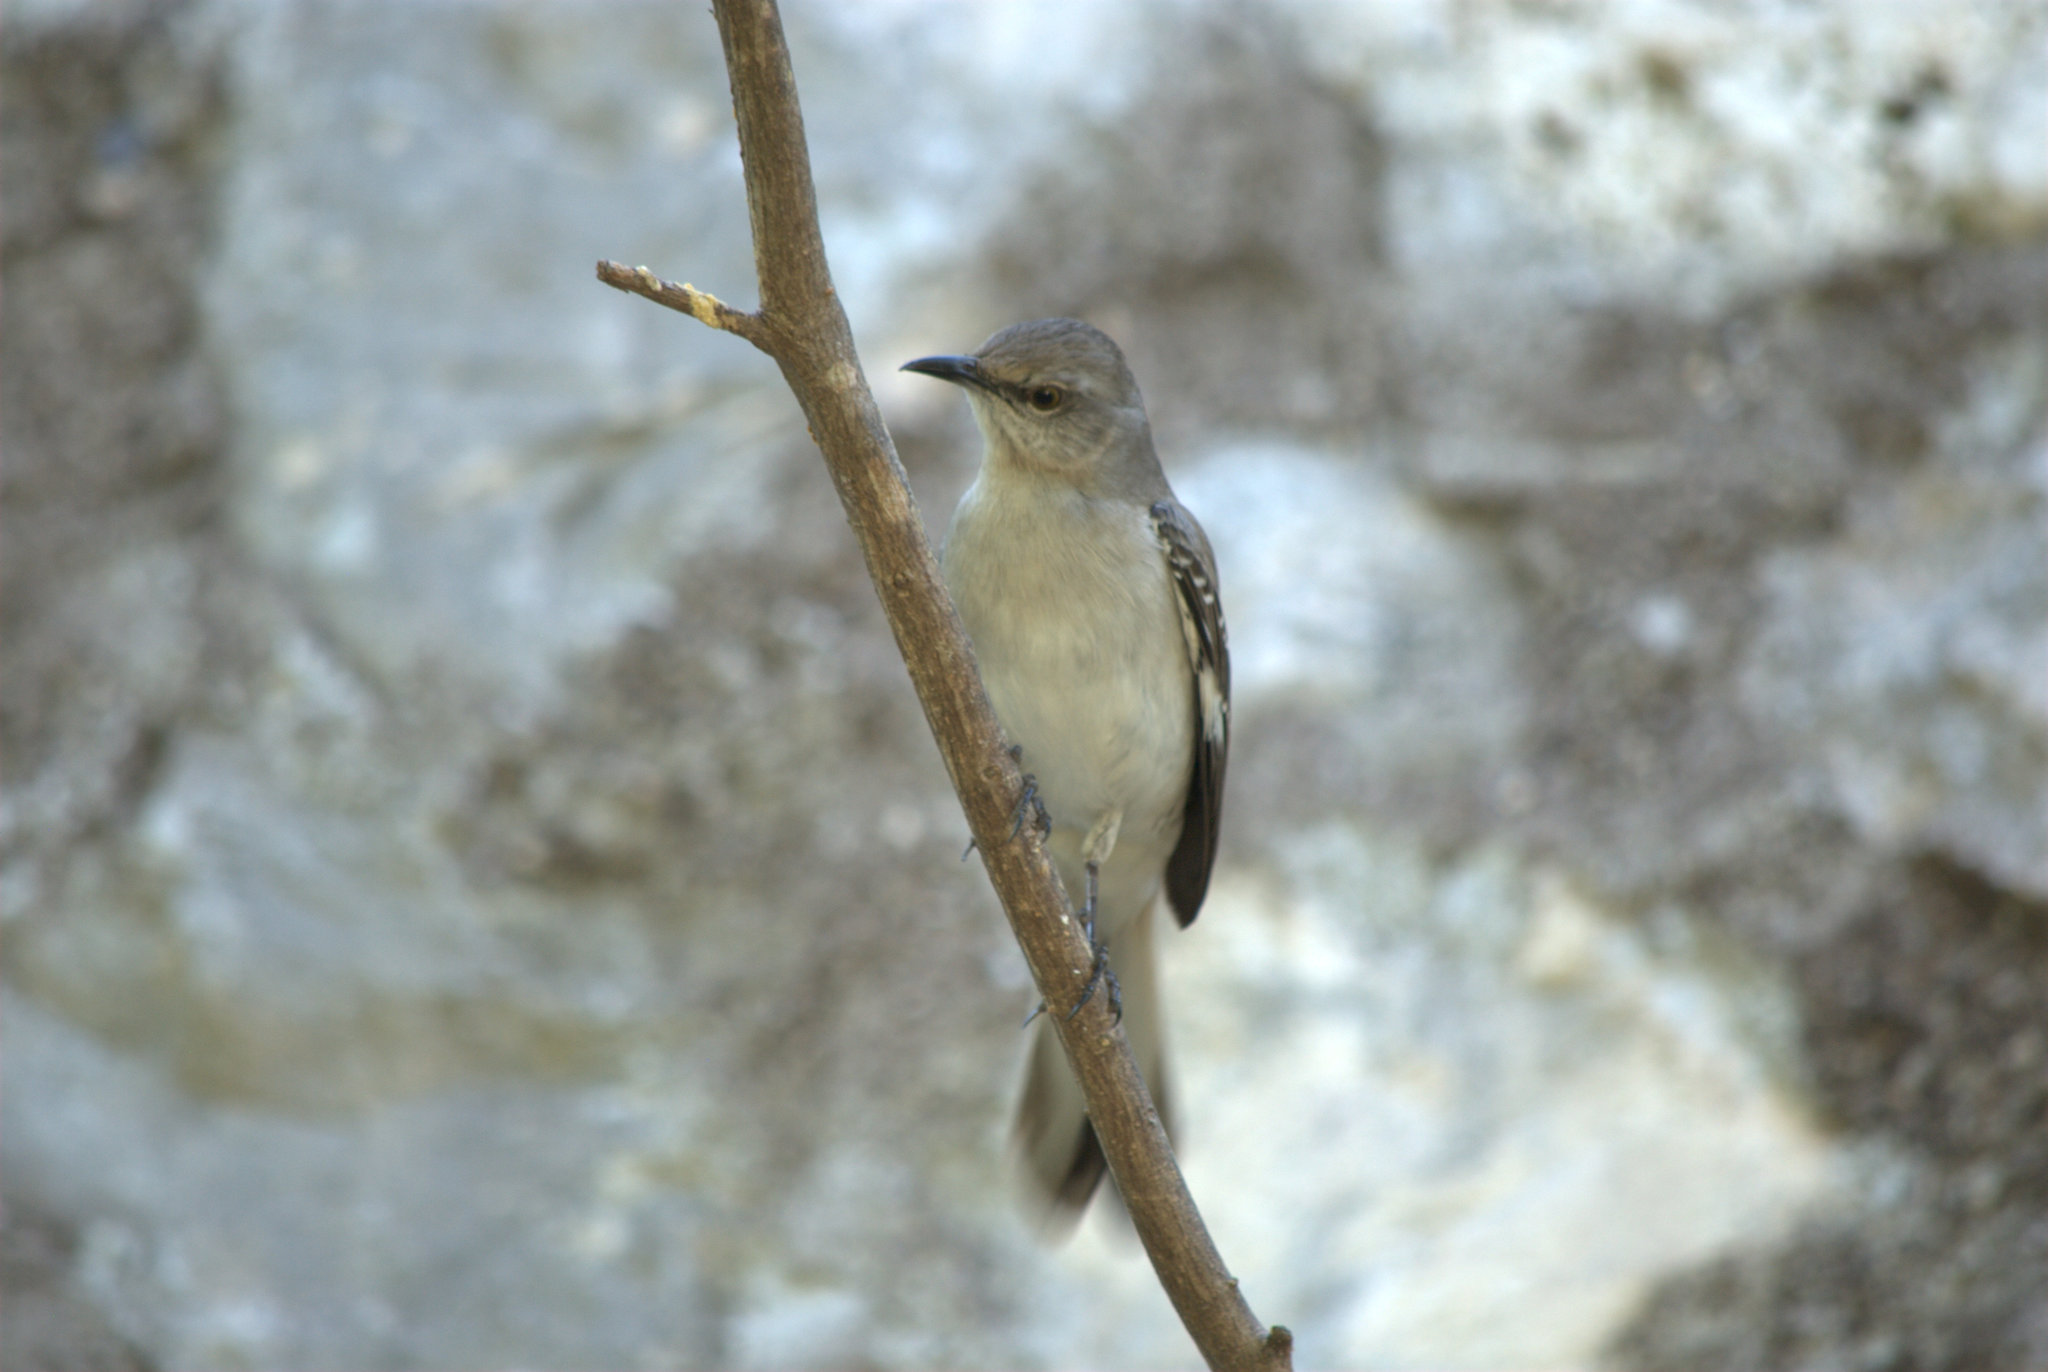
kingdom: Animalia
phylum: Chordata
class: Aves
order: Passeriformes
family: Mimidae
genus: Mimus
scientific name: Mimus gilvus
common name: Tropical mockingbird
